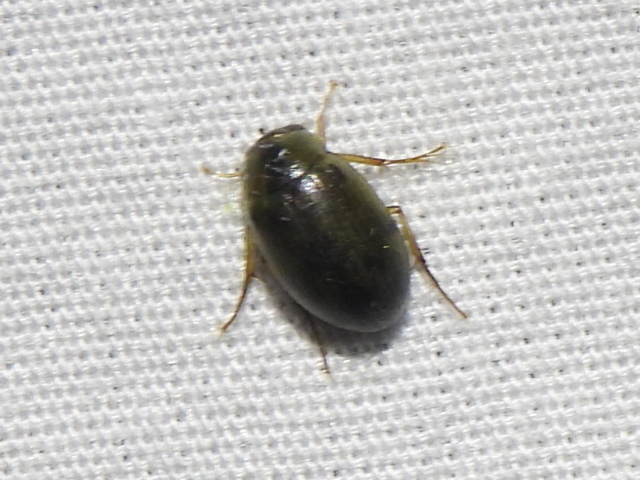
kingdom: Animalia
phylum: Arthropoda
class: Insecta
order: Coleoptera
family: Hydrophilidae
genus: Berosus
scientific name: Berosus
